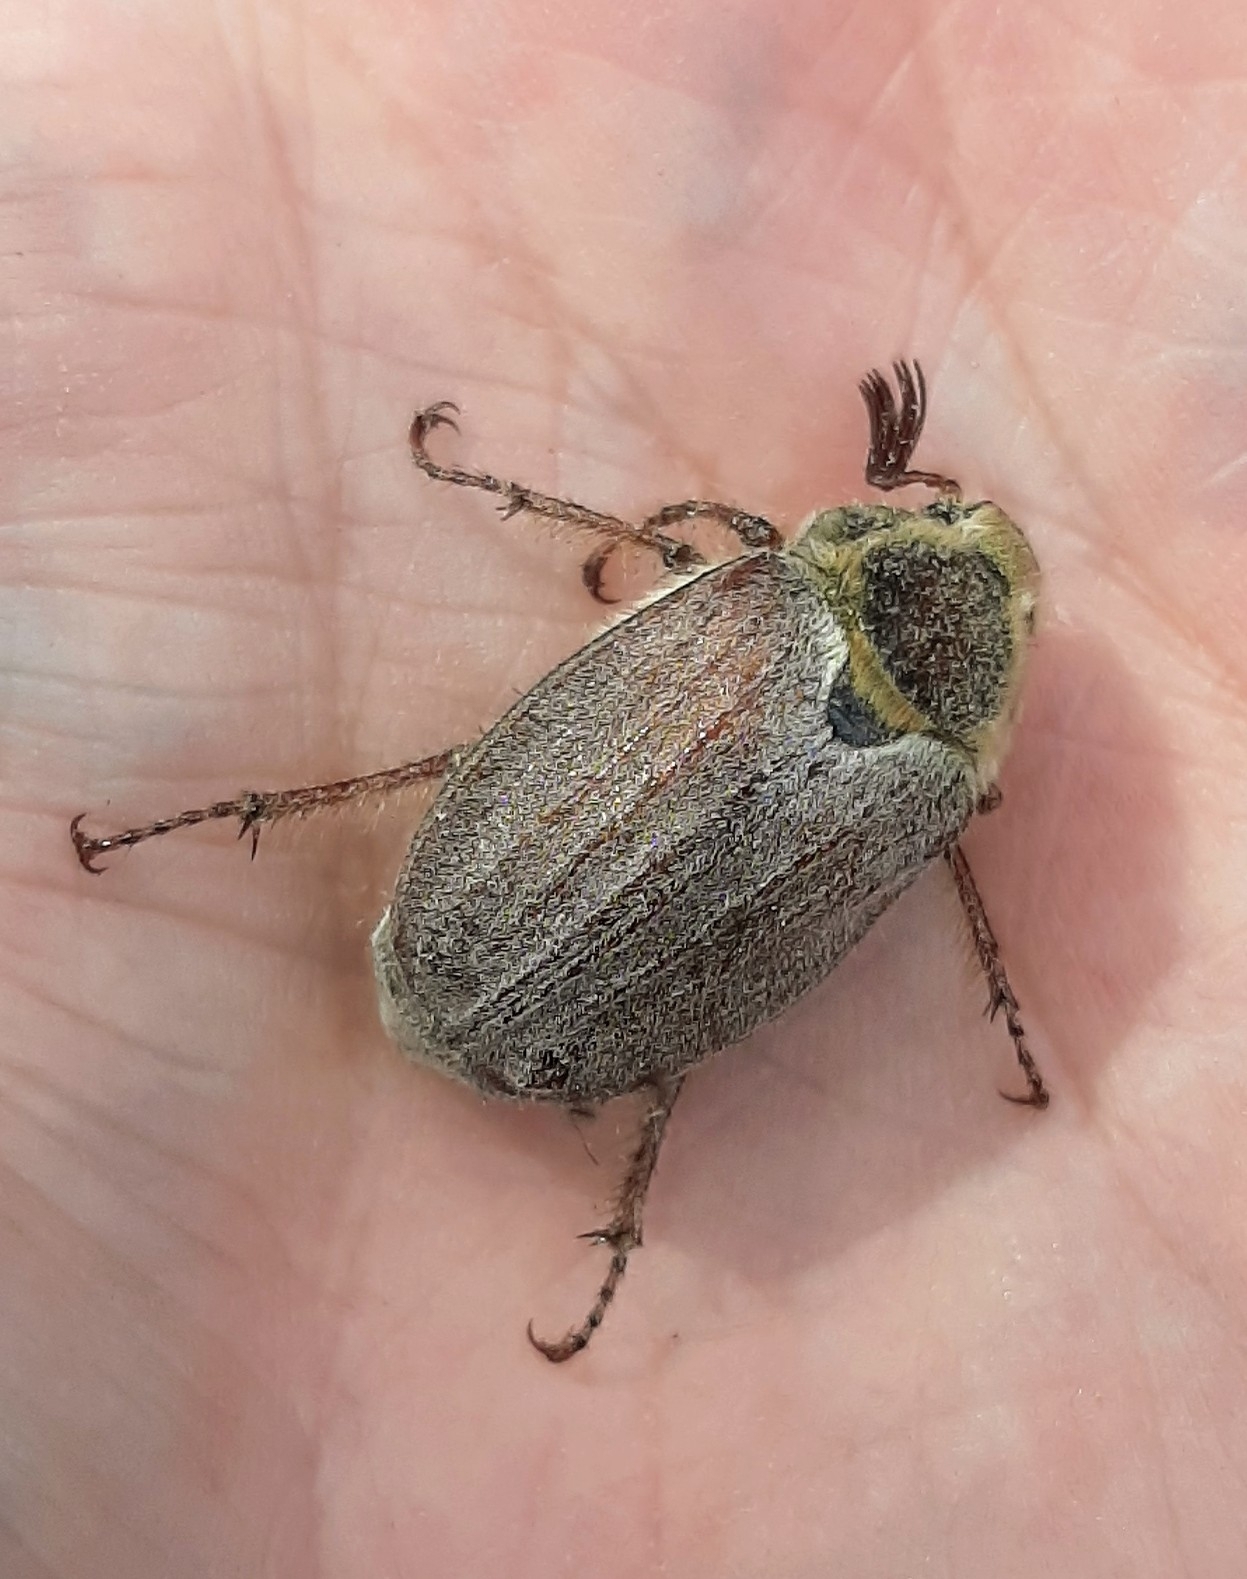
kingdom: Animalia
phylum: Arthropoda
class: Insecta
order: Coleoptera
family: Scarabaeidae
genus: Melolontha
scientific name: Melolontha hippocastani
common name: Chestnut cockchafer
